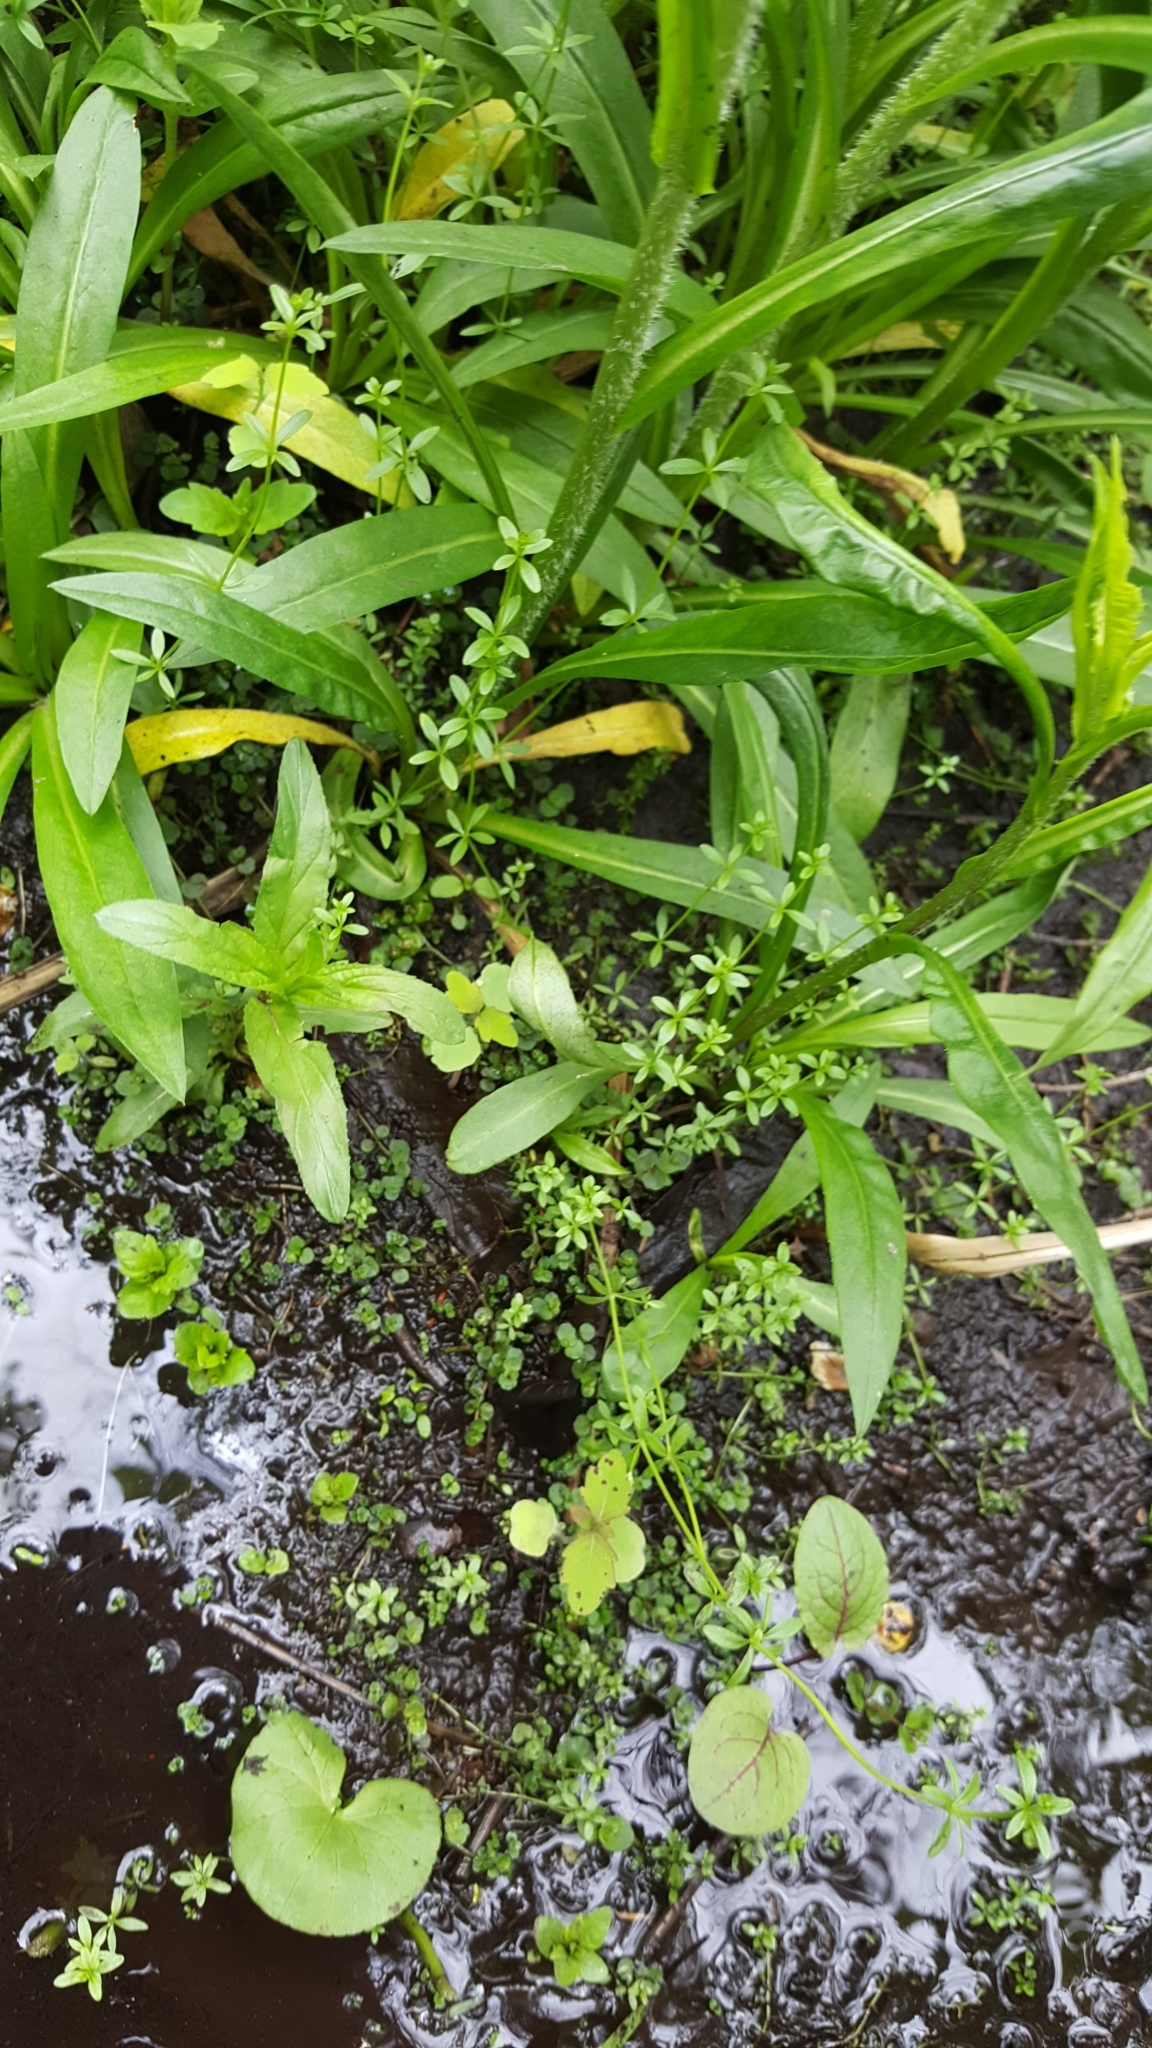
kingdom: Plantae
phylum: Tracheophyta
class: Magnoliopsida
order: Gentianales
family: Rubiaceae
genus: Galium
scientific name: Galium palustre
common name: Common marsh-bedstraw
